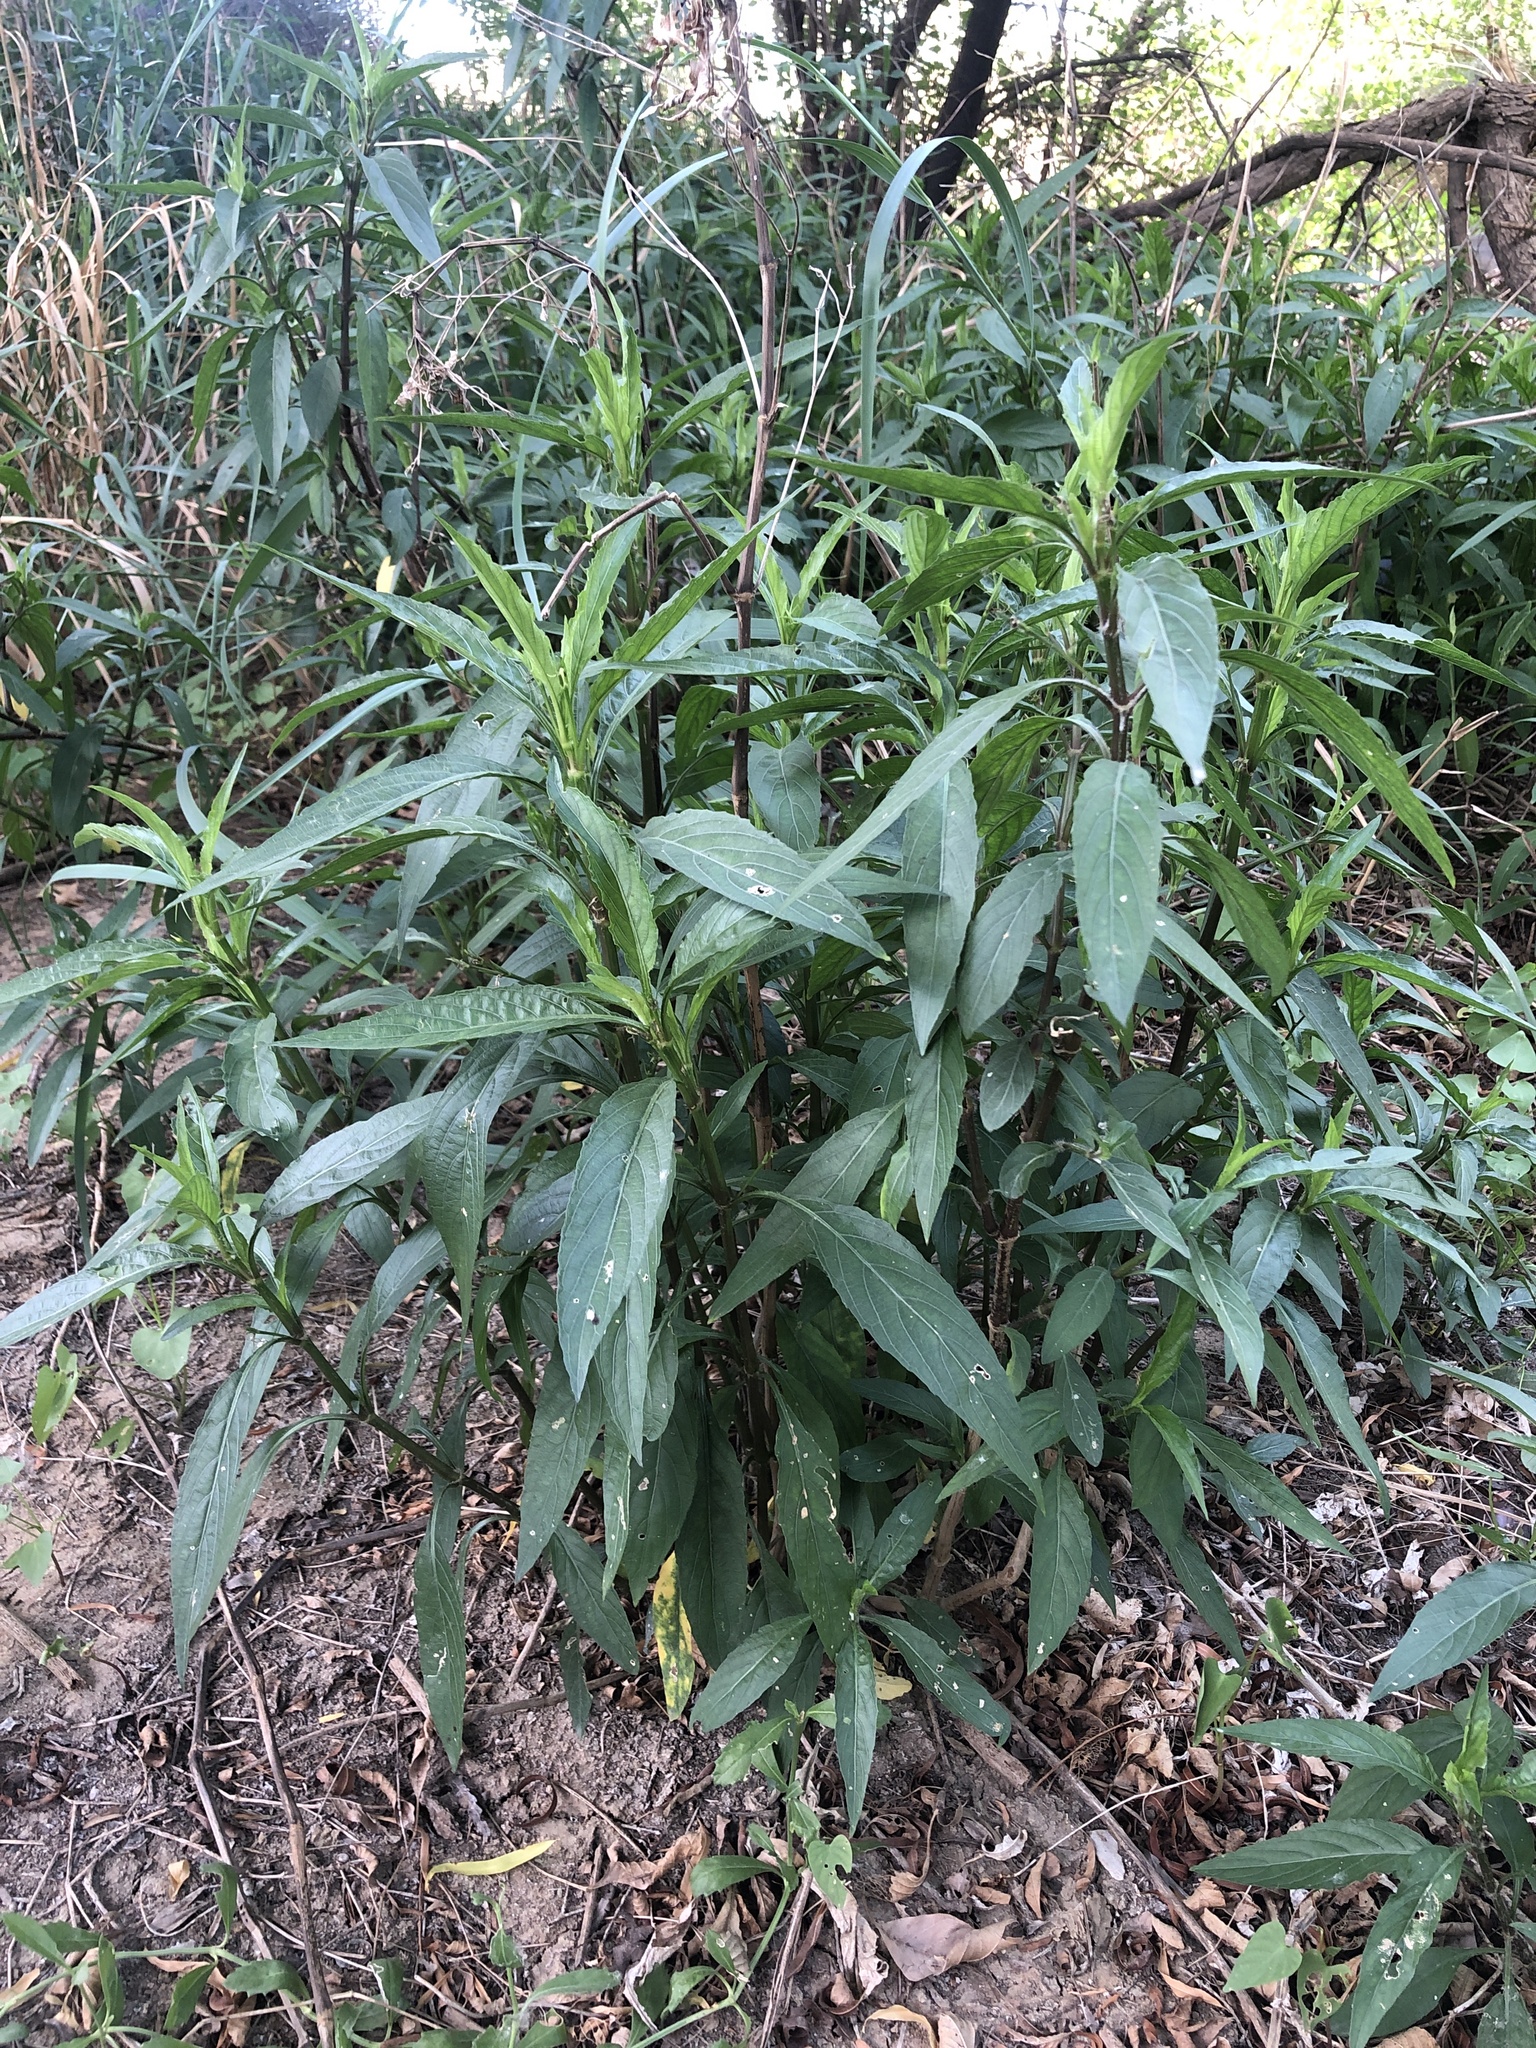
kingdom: Plantae
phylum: Tracheophyta
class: Magnoliopsida
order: Lamiales
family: Acanthaceae
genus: Ruellia
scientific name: Ruellia simplex
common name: Softseed wild petunia
